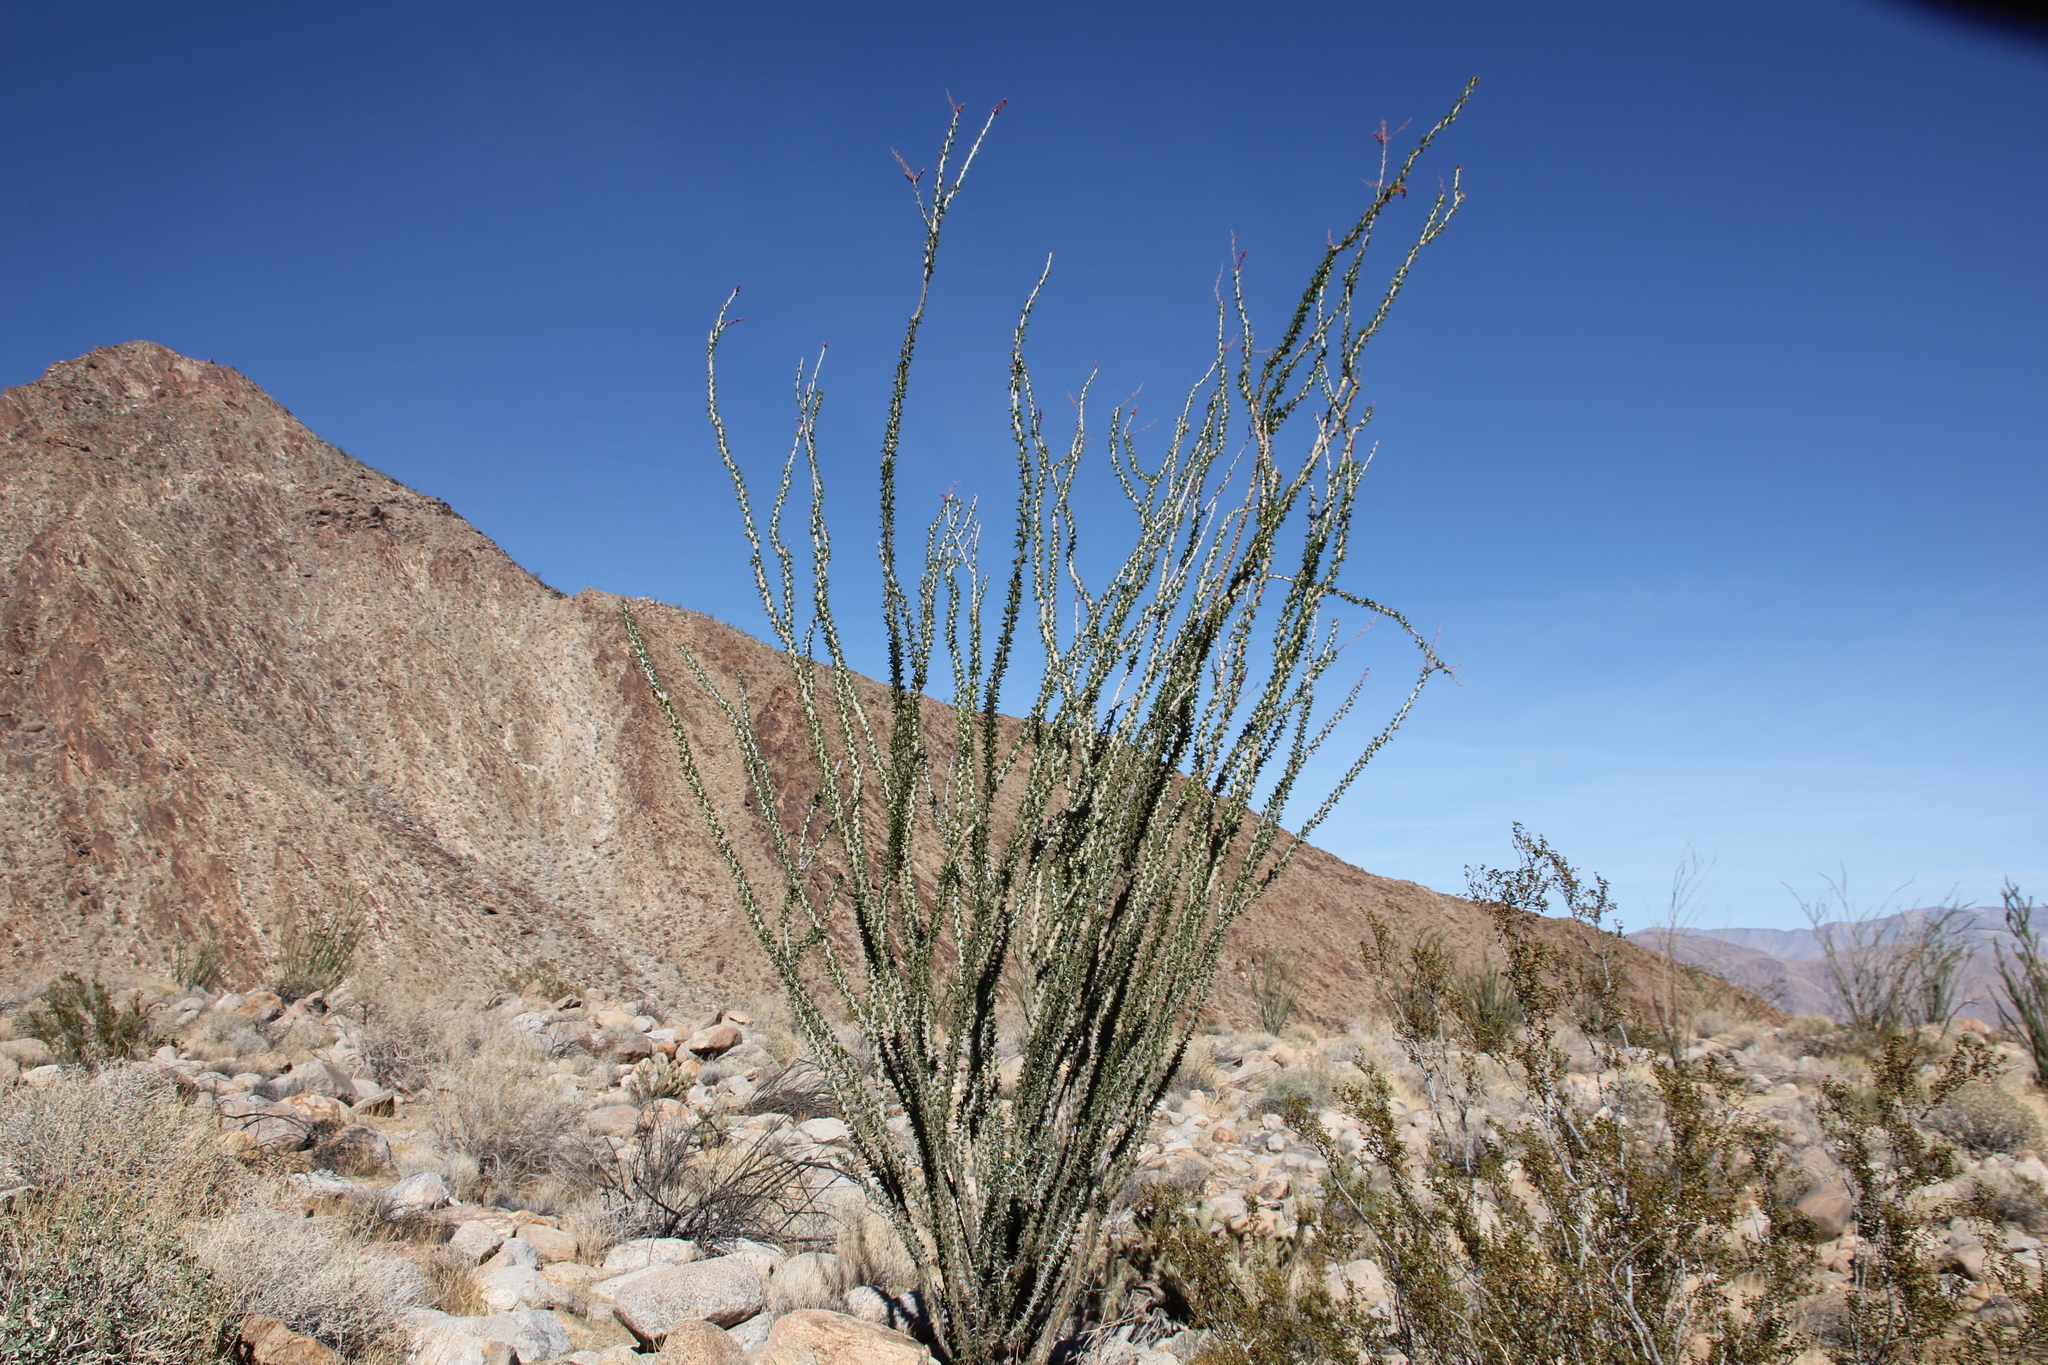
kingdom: Plantae
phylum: Tracheophyta
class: Magnoliopsida
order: Ericales
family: Fouquieriaceae
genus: Fouquieria
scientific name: Fouquieria splendens
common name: Vine-cactus
